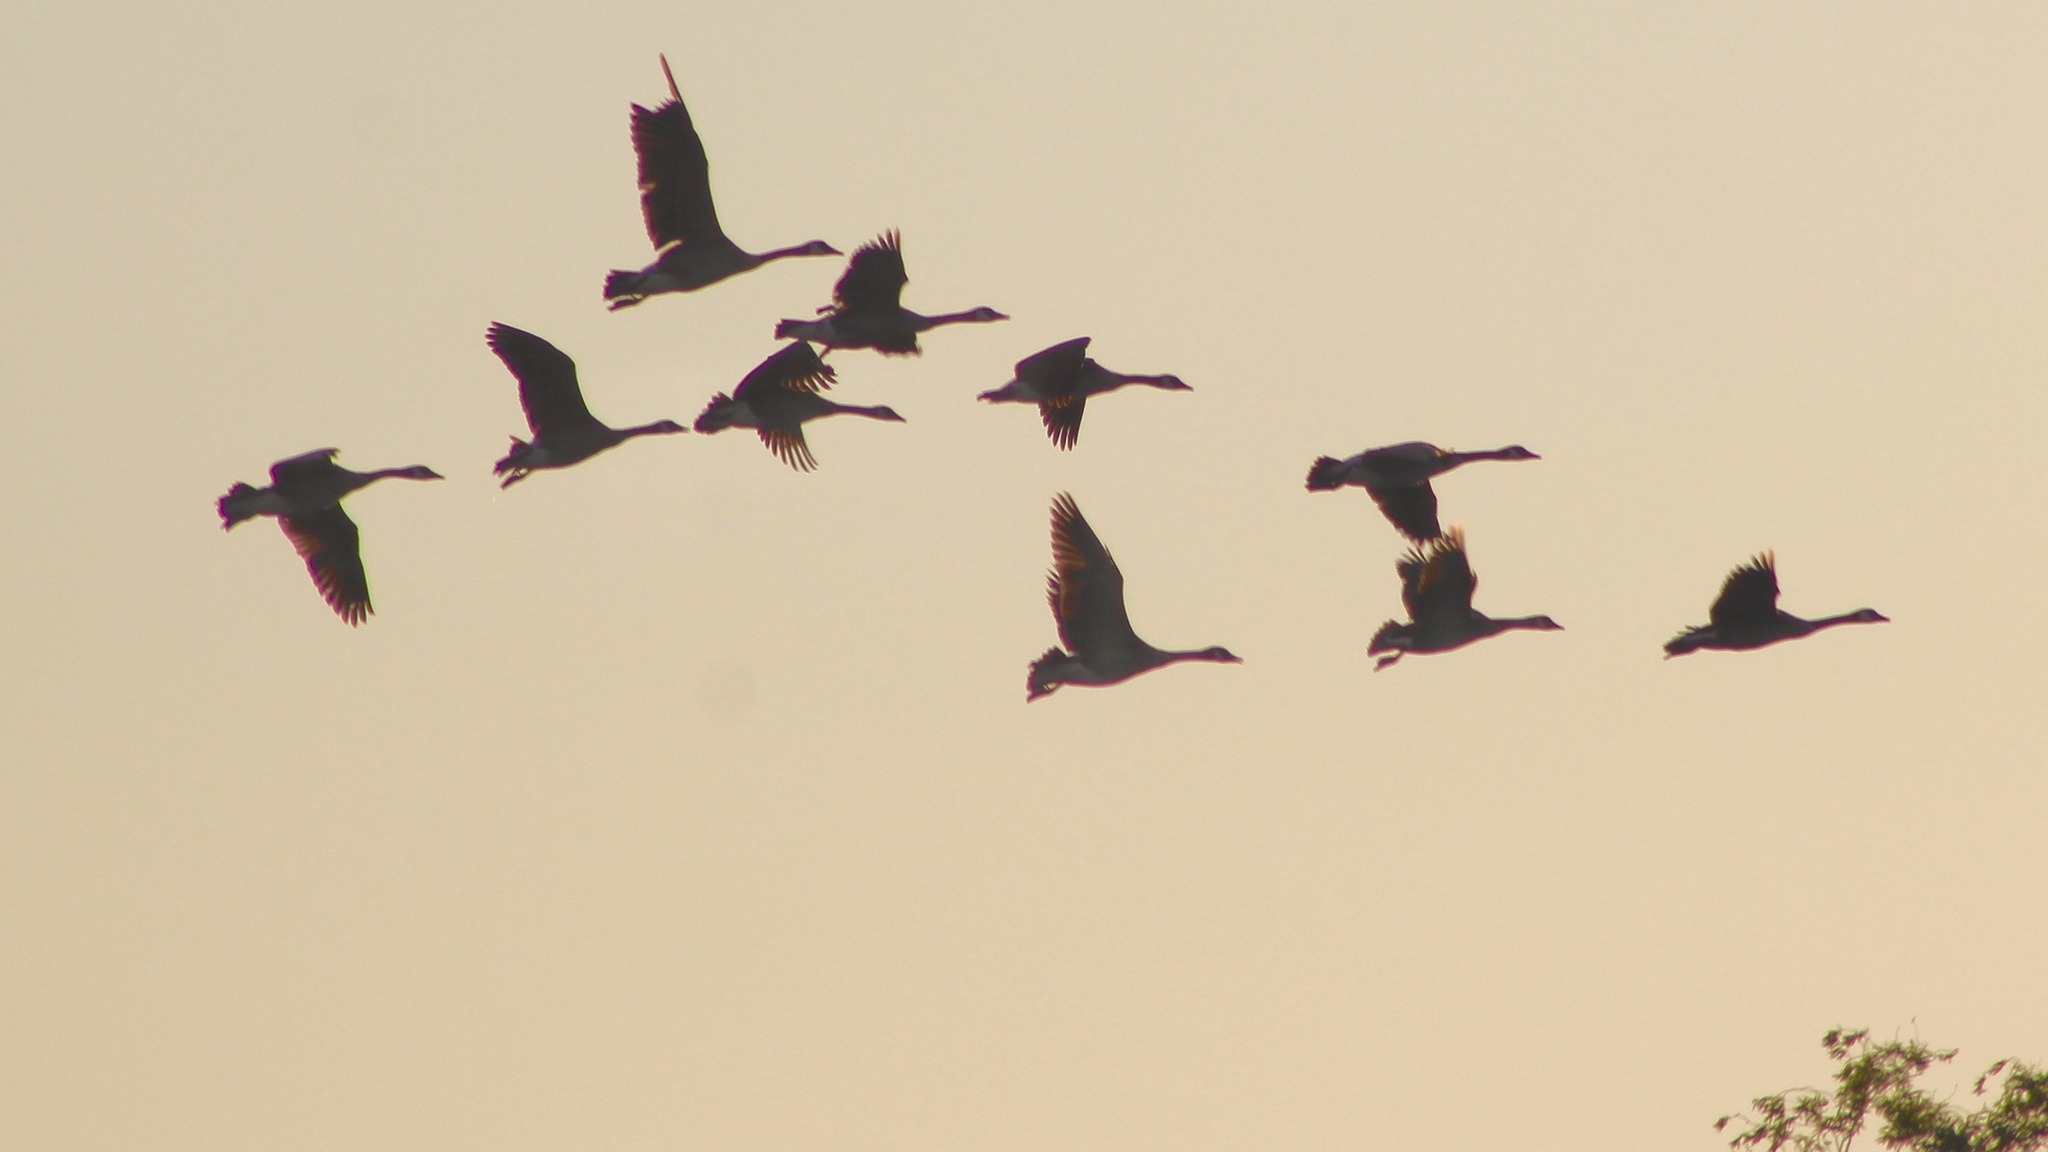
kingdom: Animalia
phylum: Chordata
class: Aves
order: Anseriformes
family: Anatidae
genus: Branta
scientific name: Branta canadensis
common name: Canada goose
